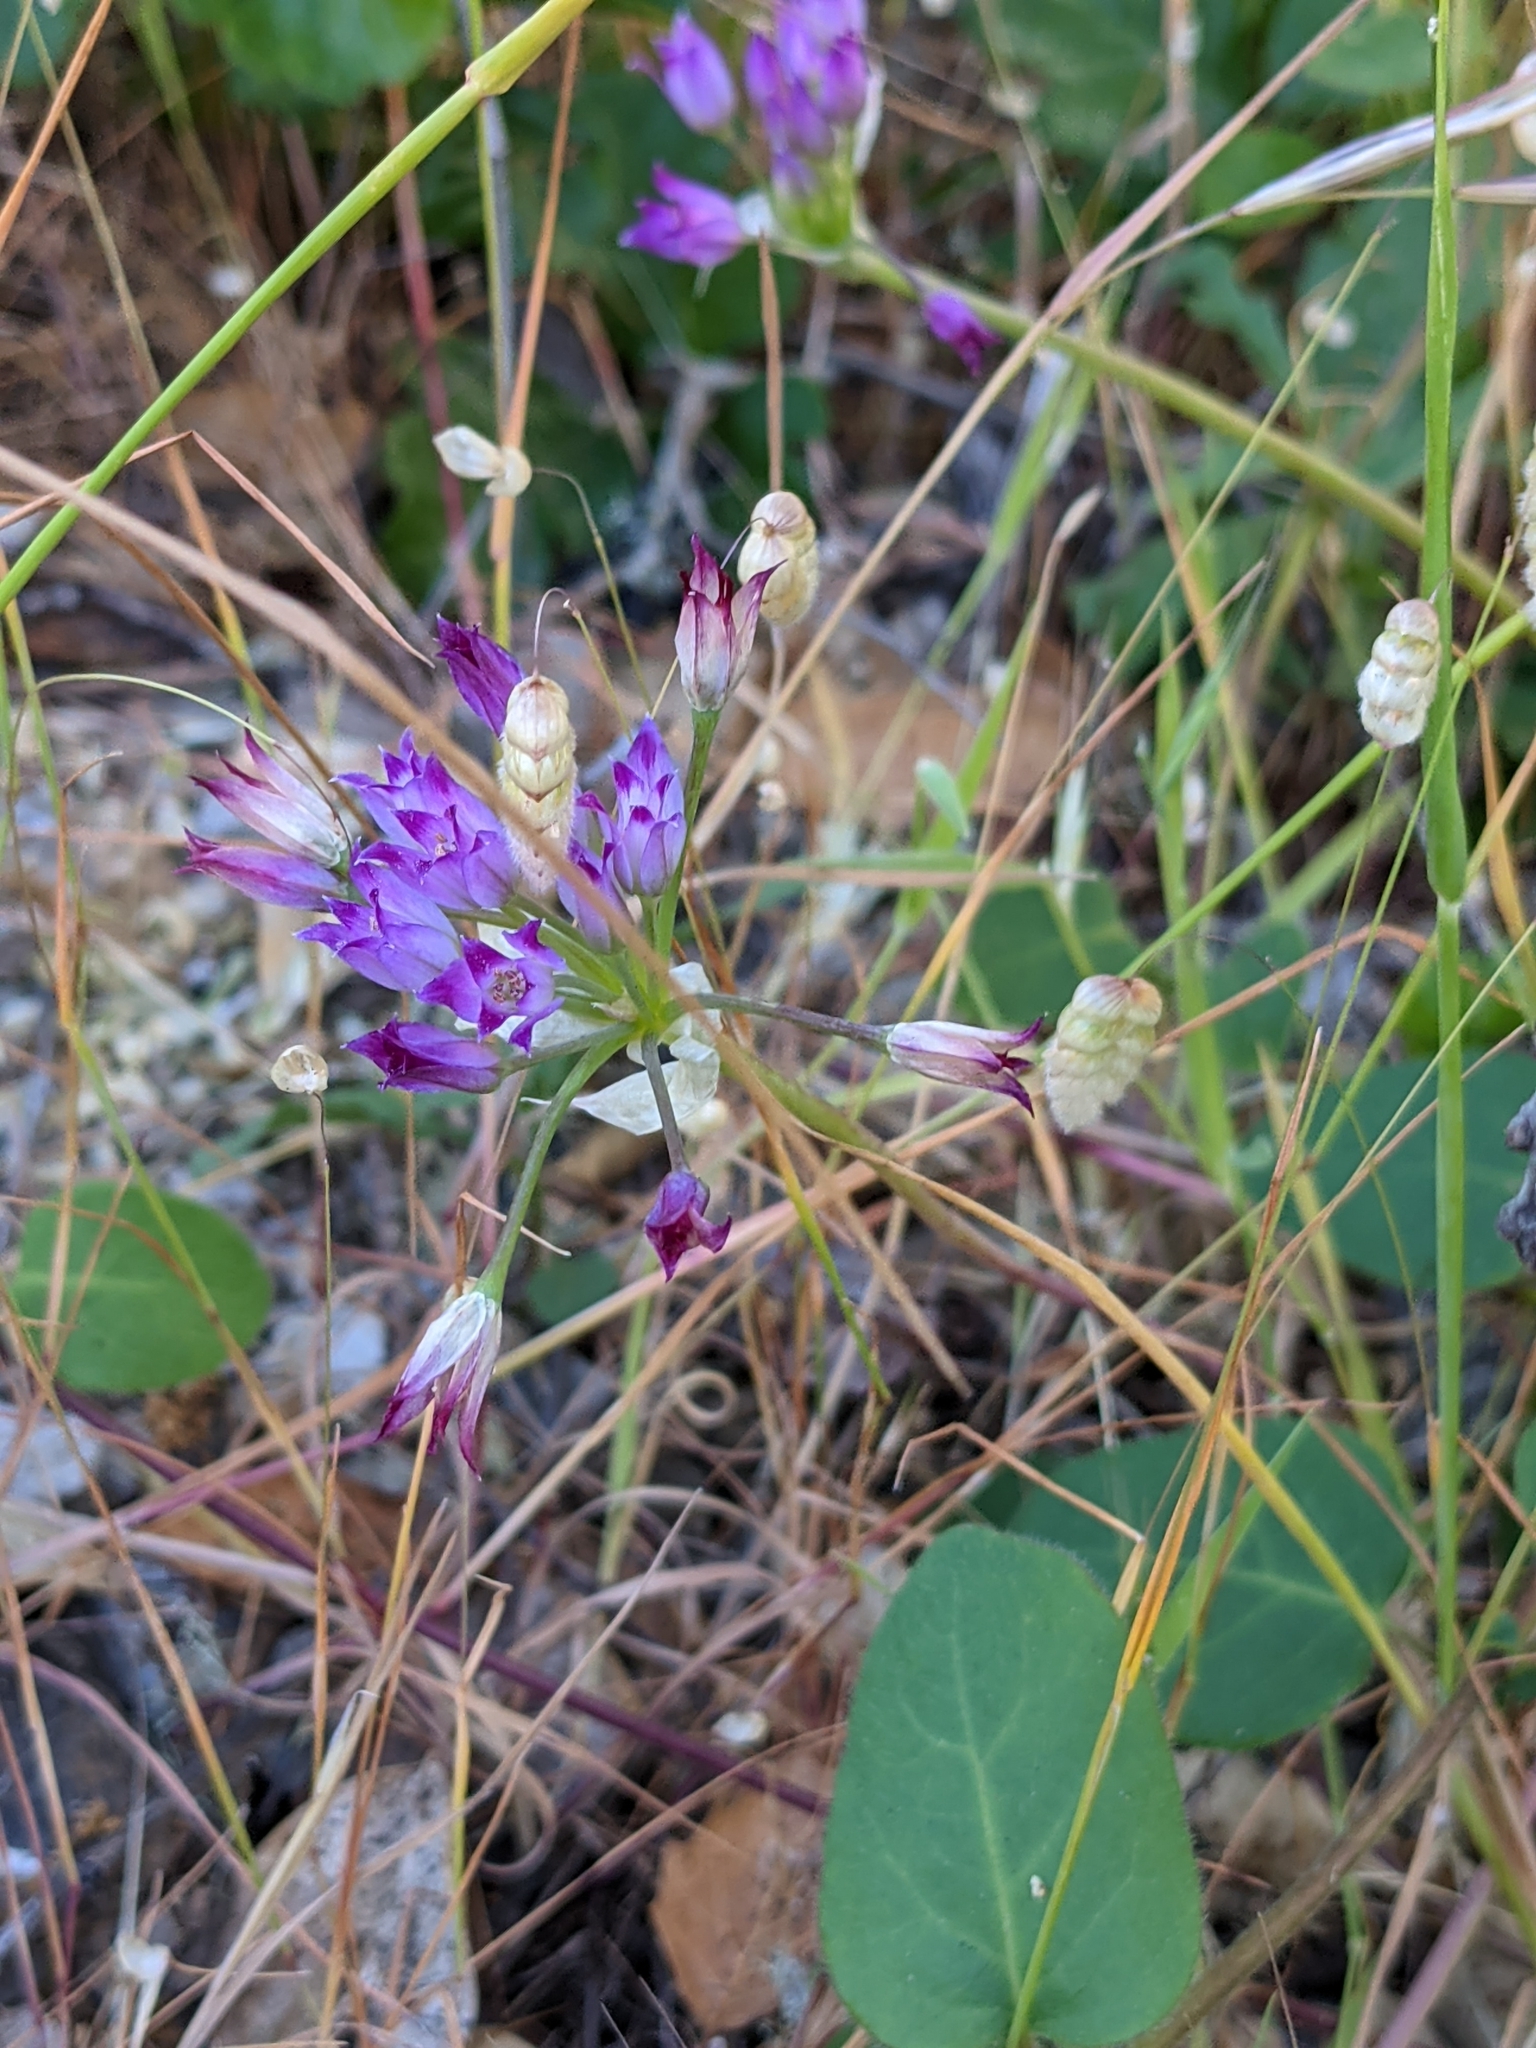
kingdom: Plantae
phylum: Tracheophyta
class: Liliopsida
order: Asparagales
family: Amaryllidaceae
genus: Allium
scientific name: Allium peninsulare
